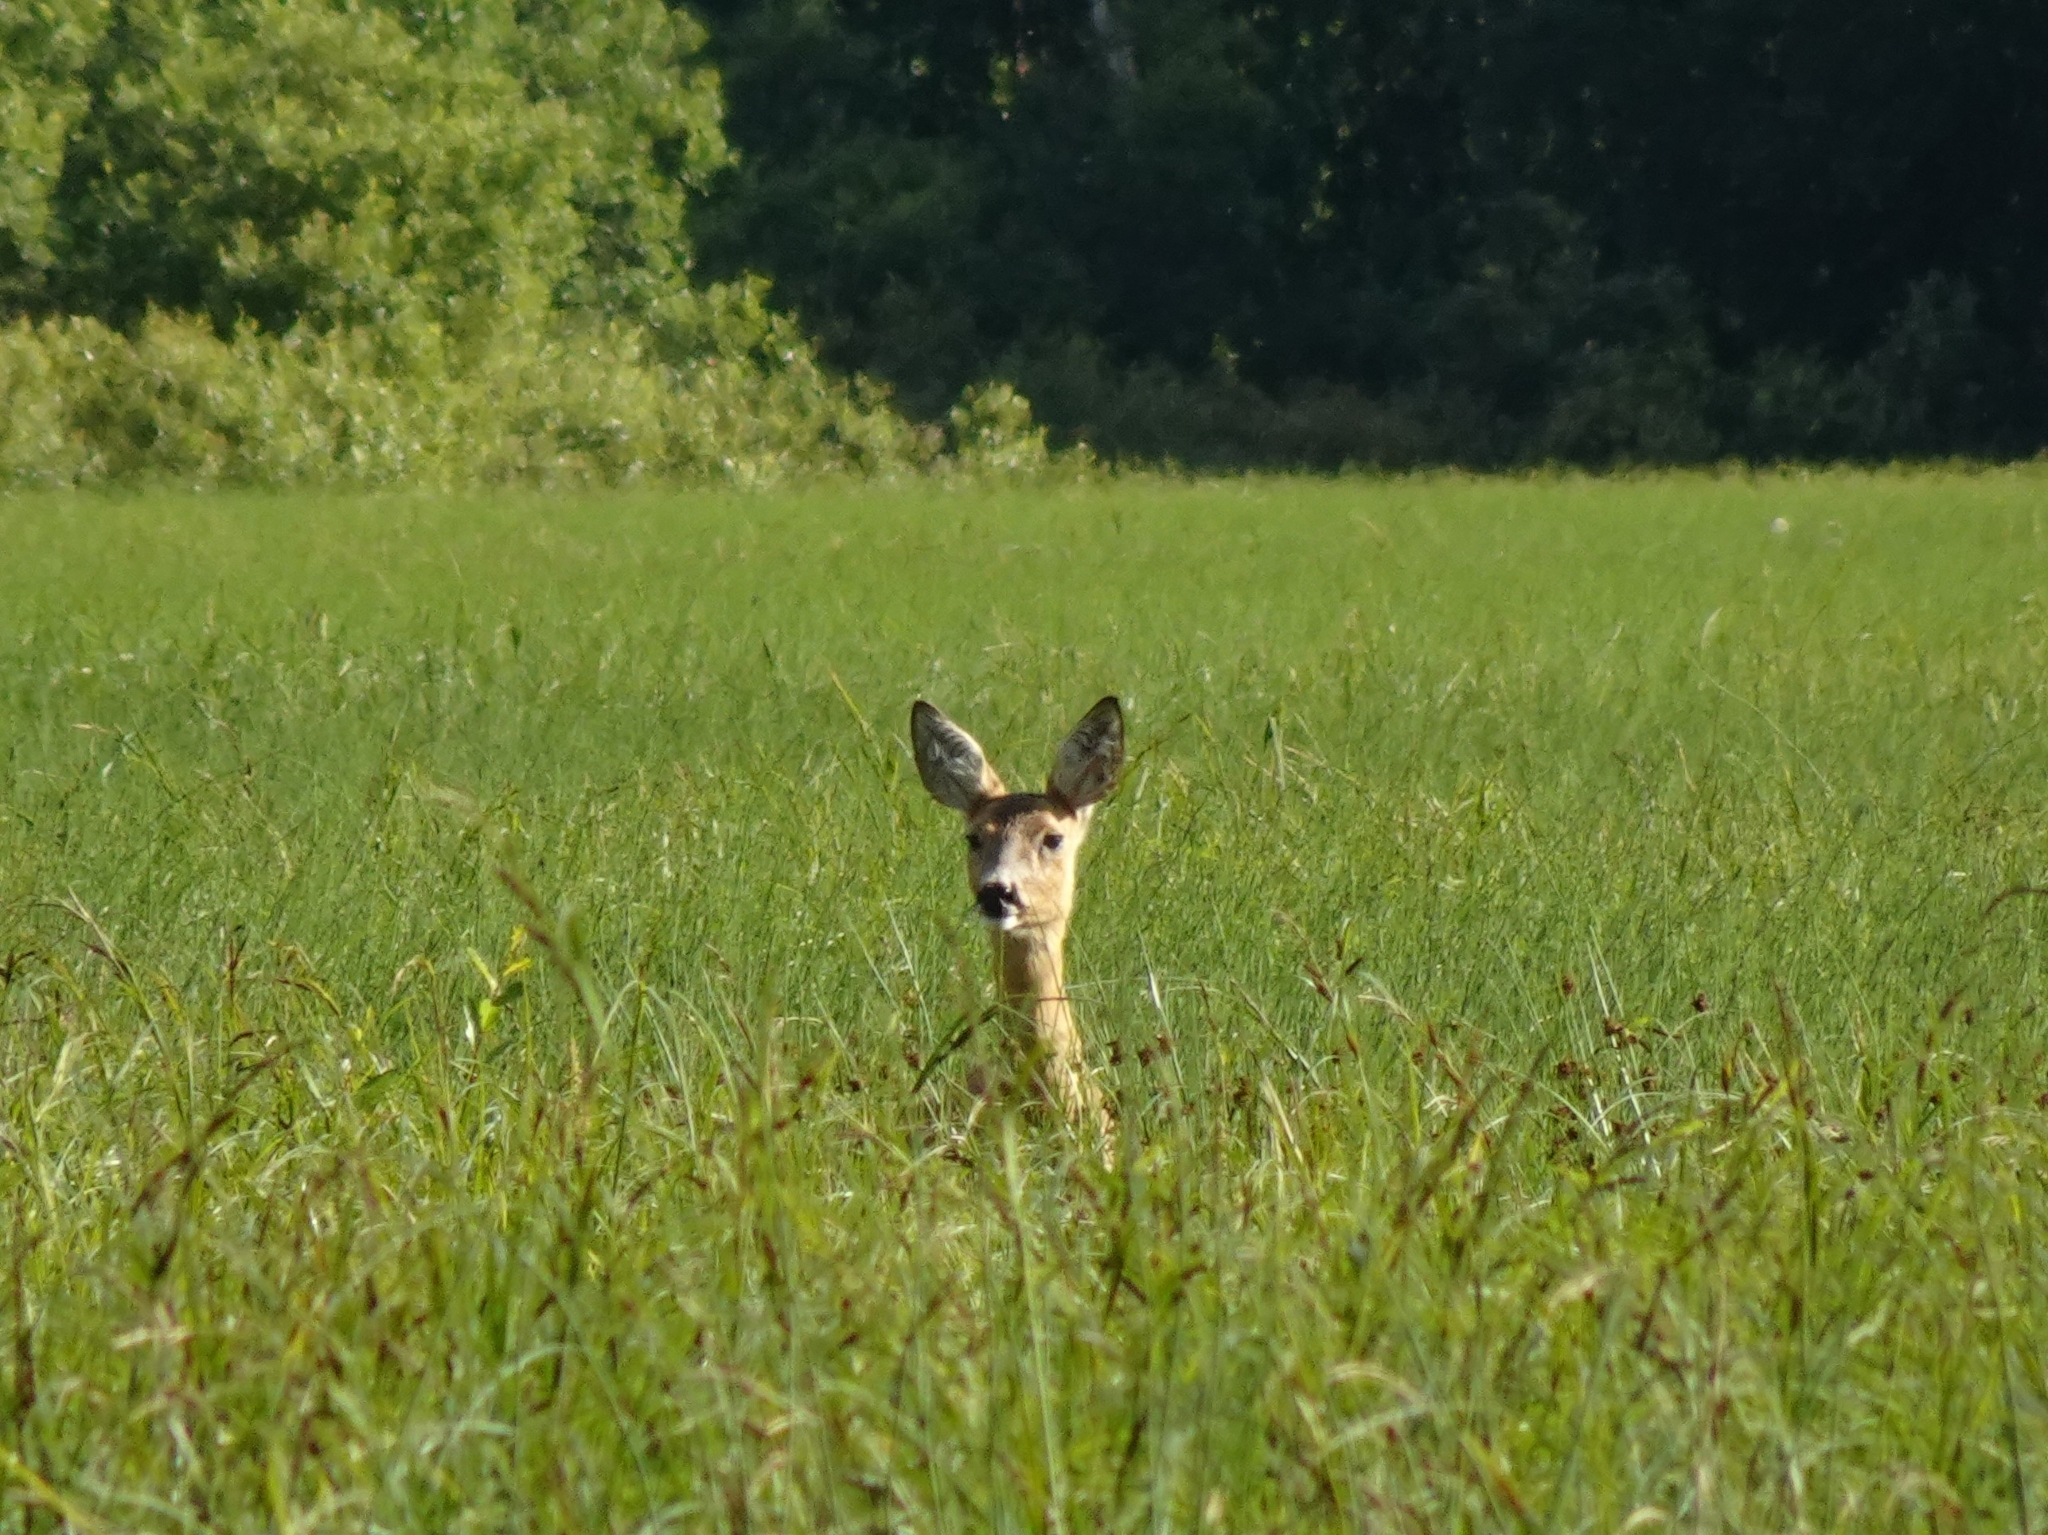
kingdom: Animalia
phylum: Chordata
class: Mammalia
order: Artiodactyla
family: Cervidae
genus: Capreolus
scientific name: Capreolus capreolus
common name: Western roe deer
